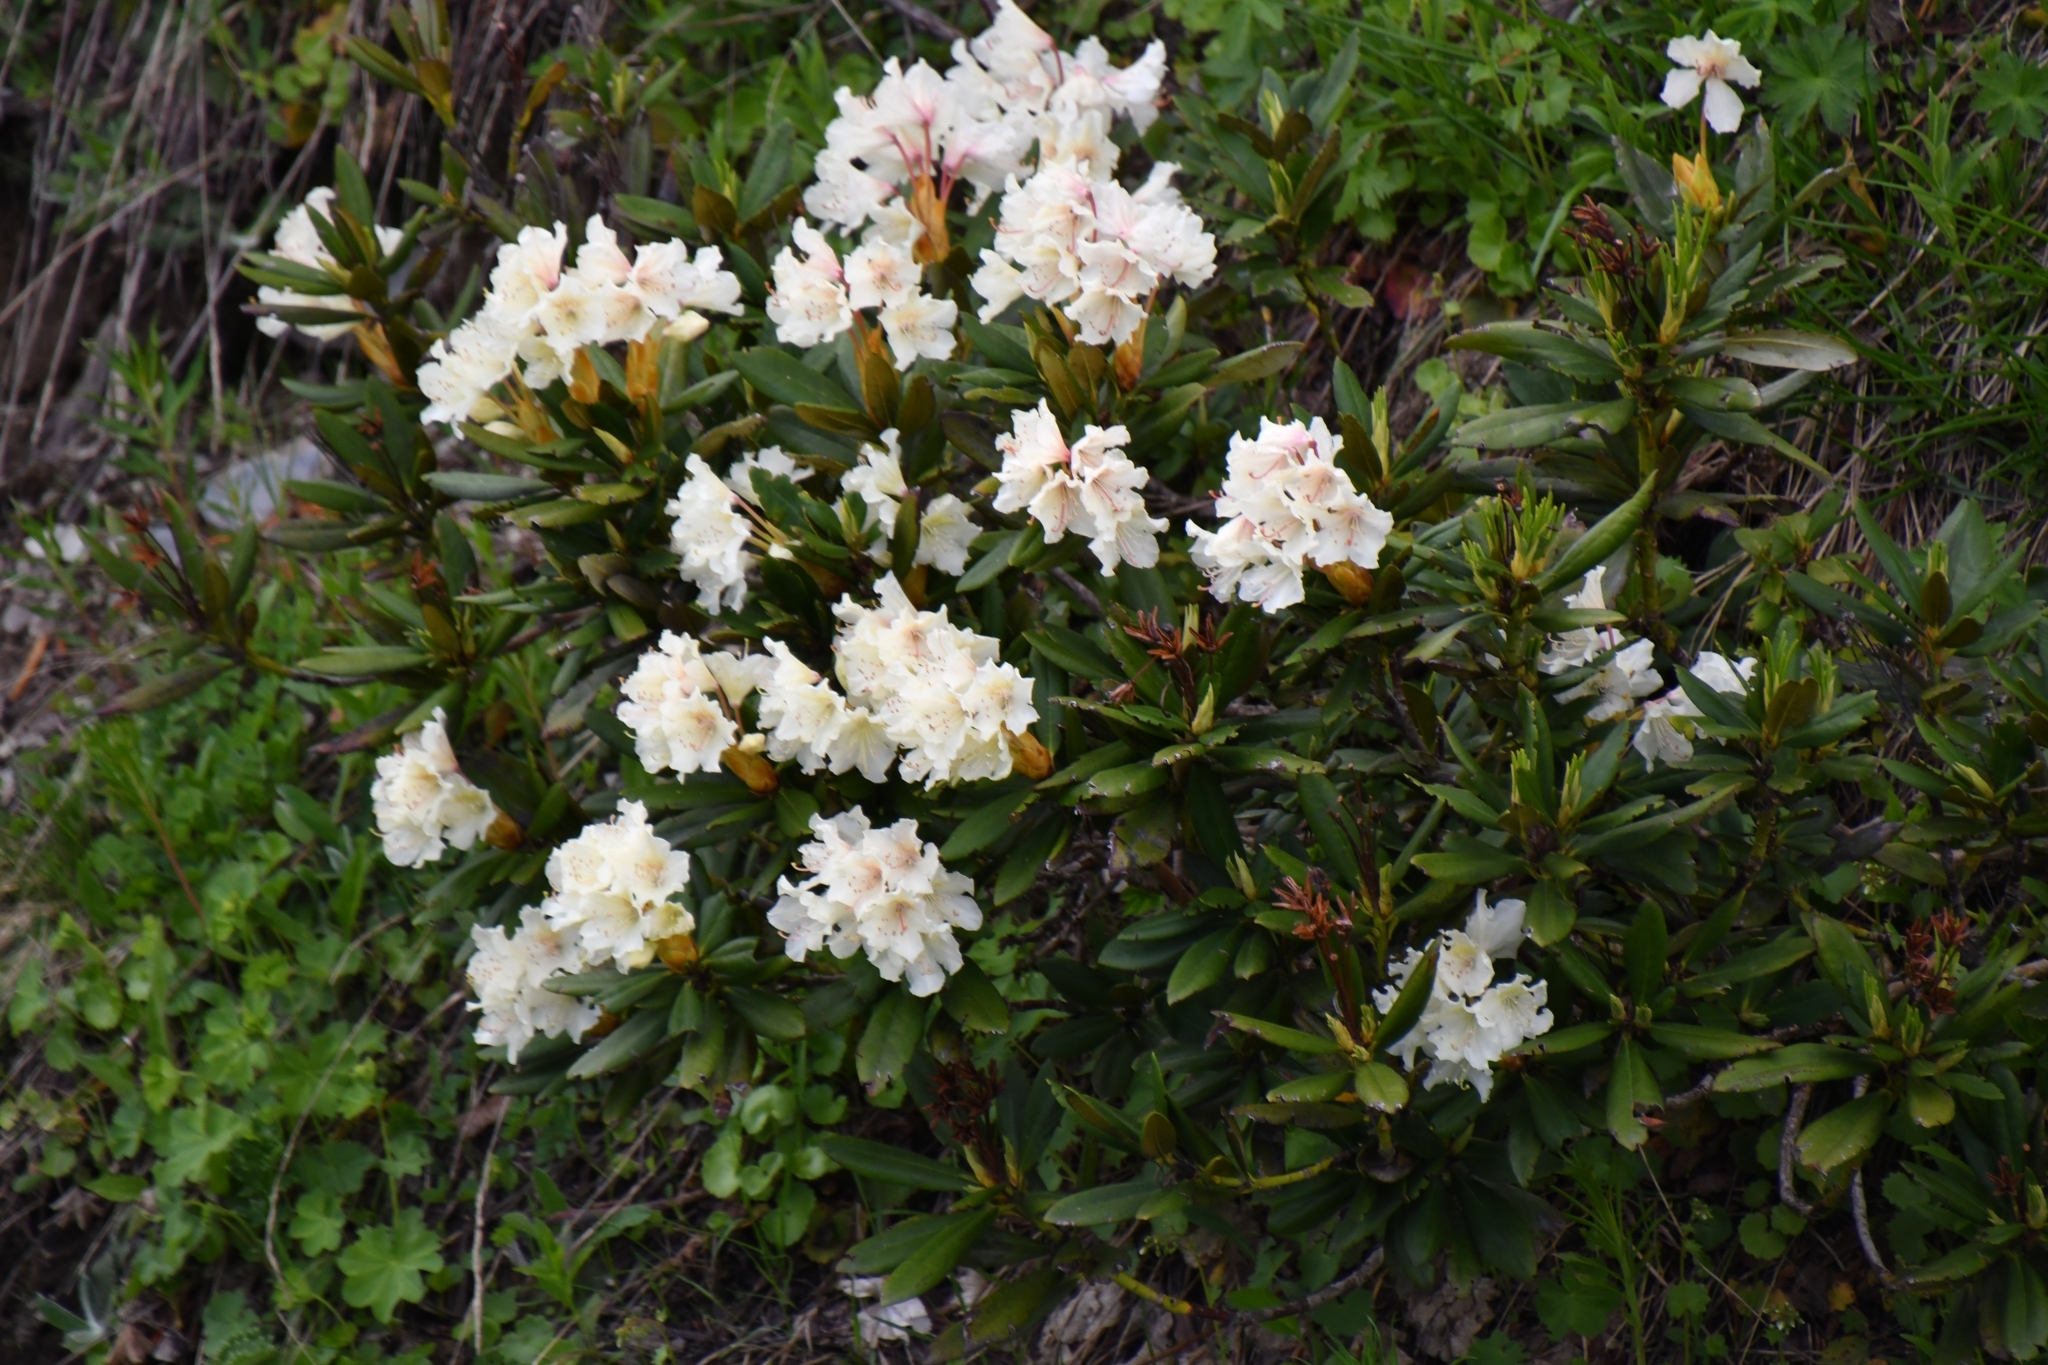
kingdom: Plantae
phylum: Tracheophyta
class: Magnoliopsida
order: Ericales
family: Ericaceae
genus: Rhododendron
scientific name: Rhododendron caucasicum
